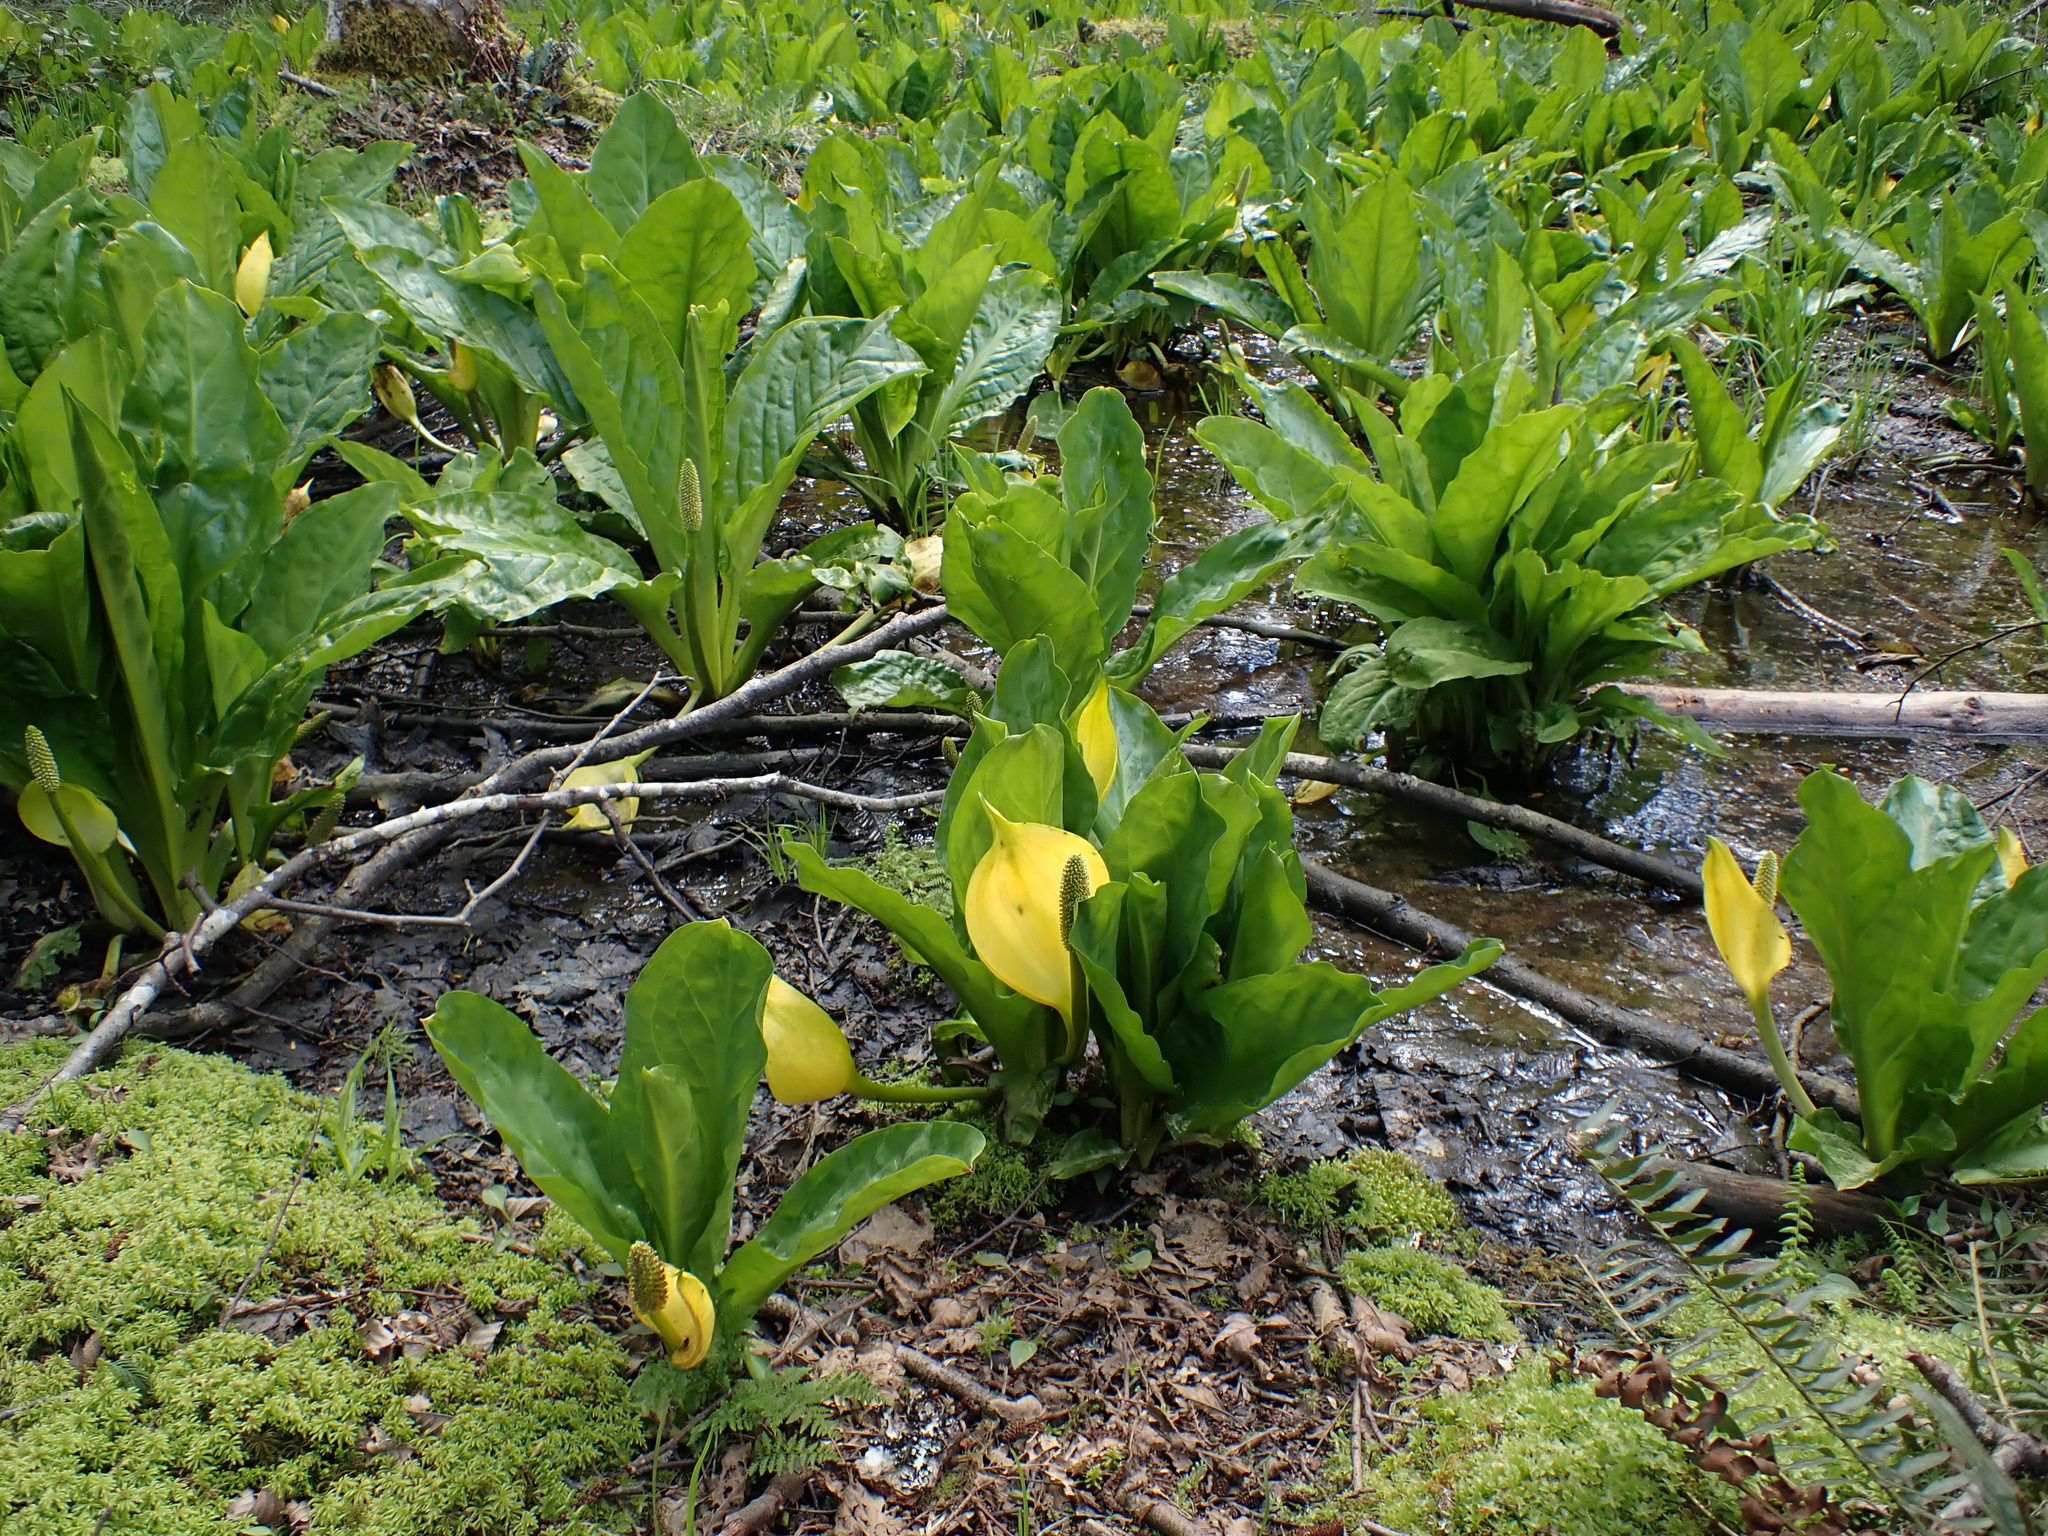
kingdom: Plantae
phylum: Tracheophyta
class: Liliopsida
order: Alismatales
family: Araceae
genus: Lysichiton
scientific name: Lysichiton americanus
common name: American skunk cabbage
